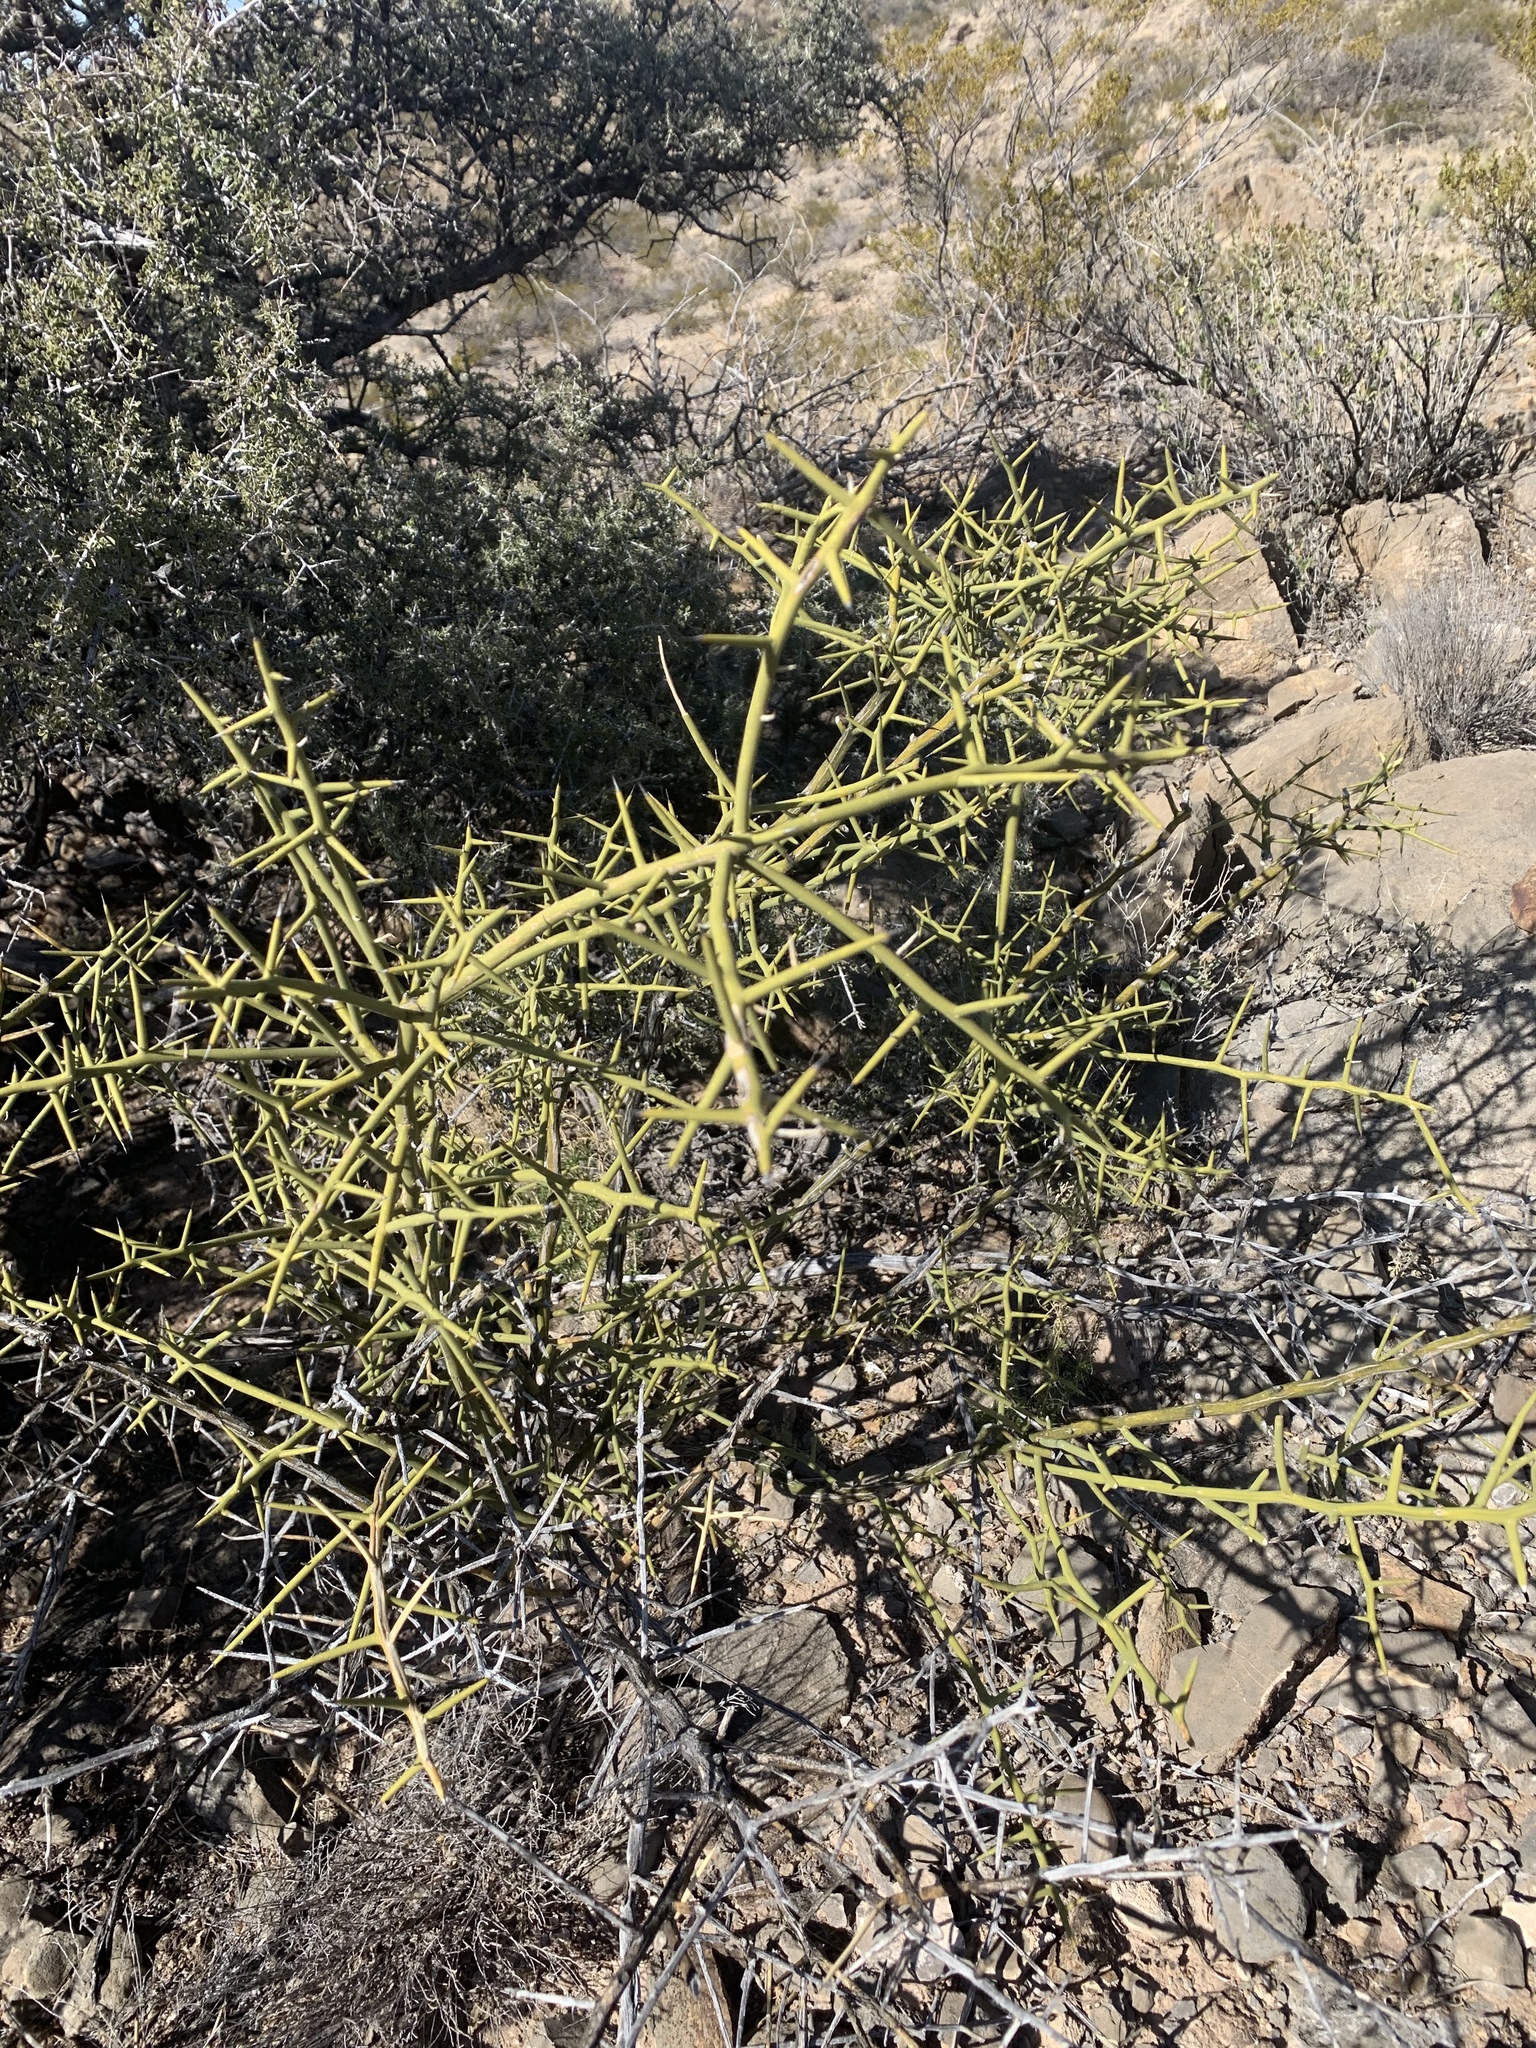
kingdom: Plantae
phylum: Tracheophyta
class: Magnoliopsida
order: Brassicales
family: Koeberliniaceae
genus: Koeberlinia
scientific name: Koeberlinia spinosa
